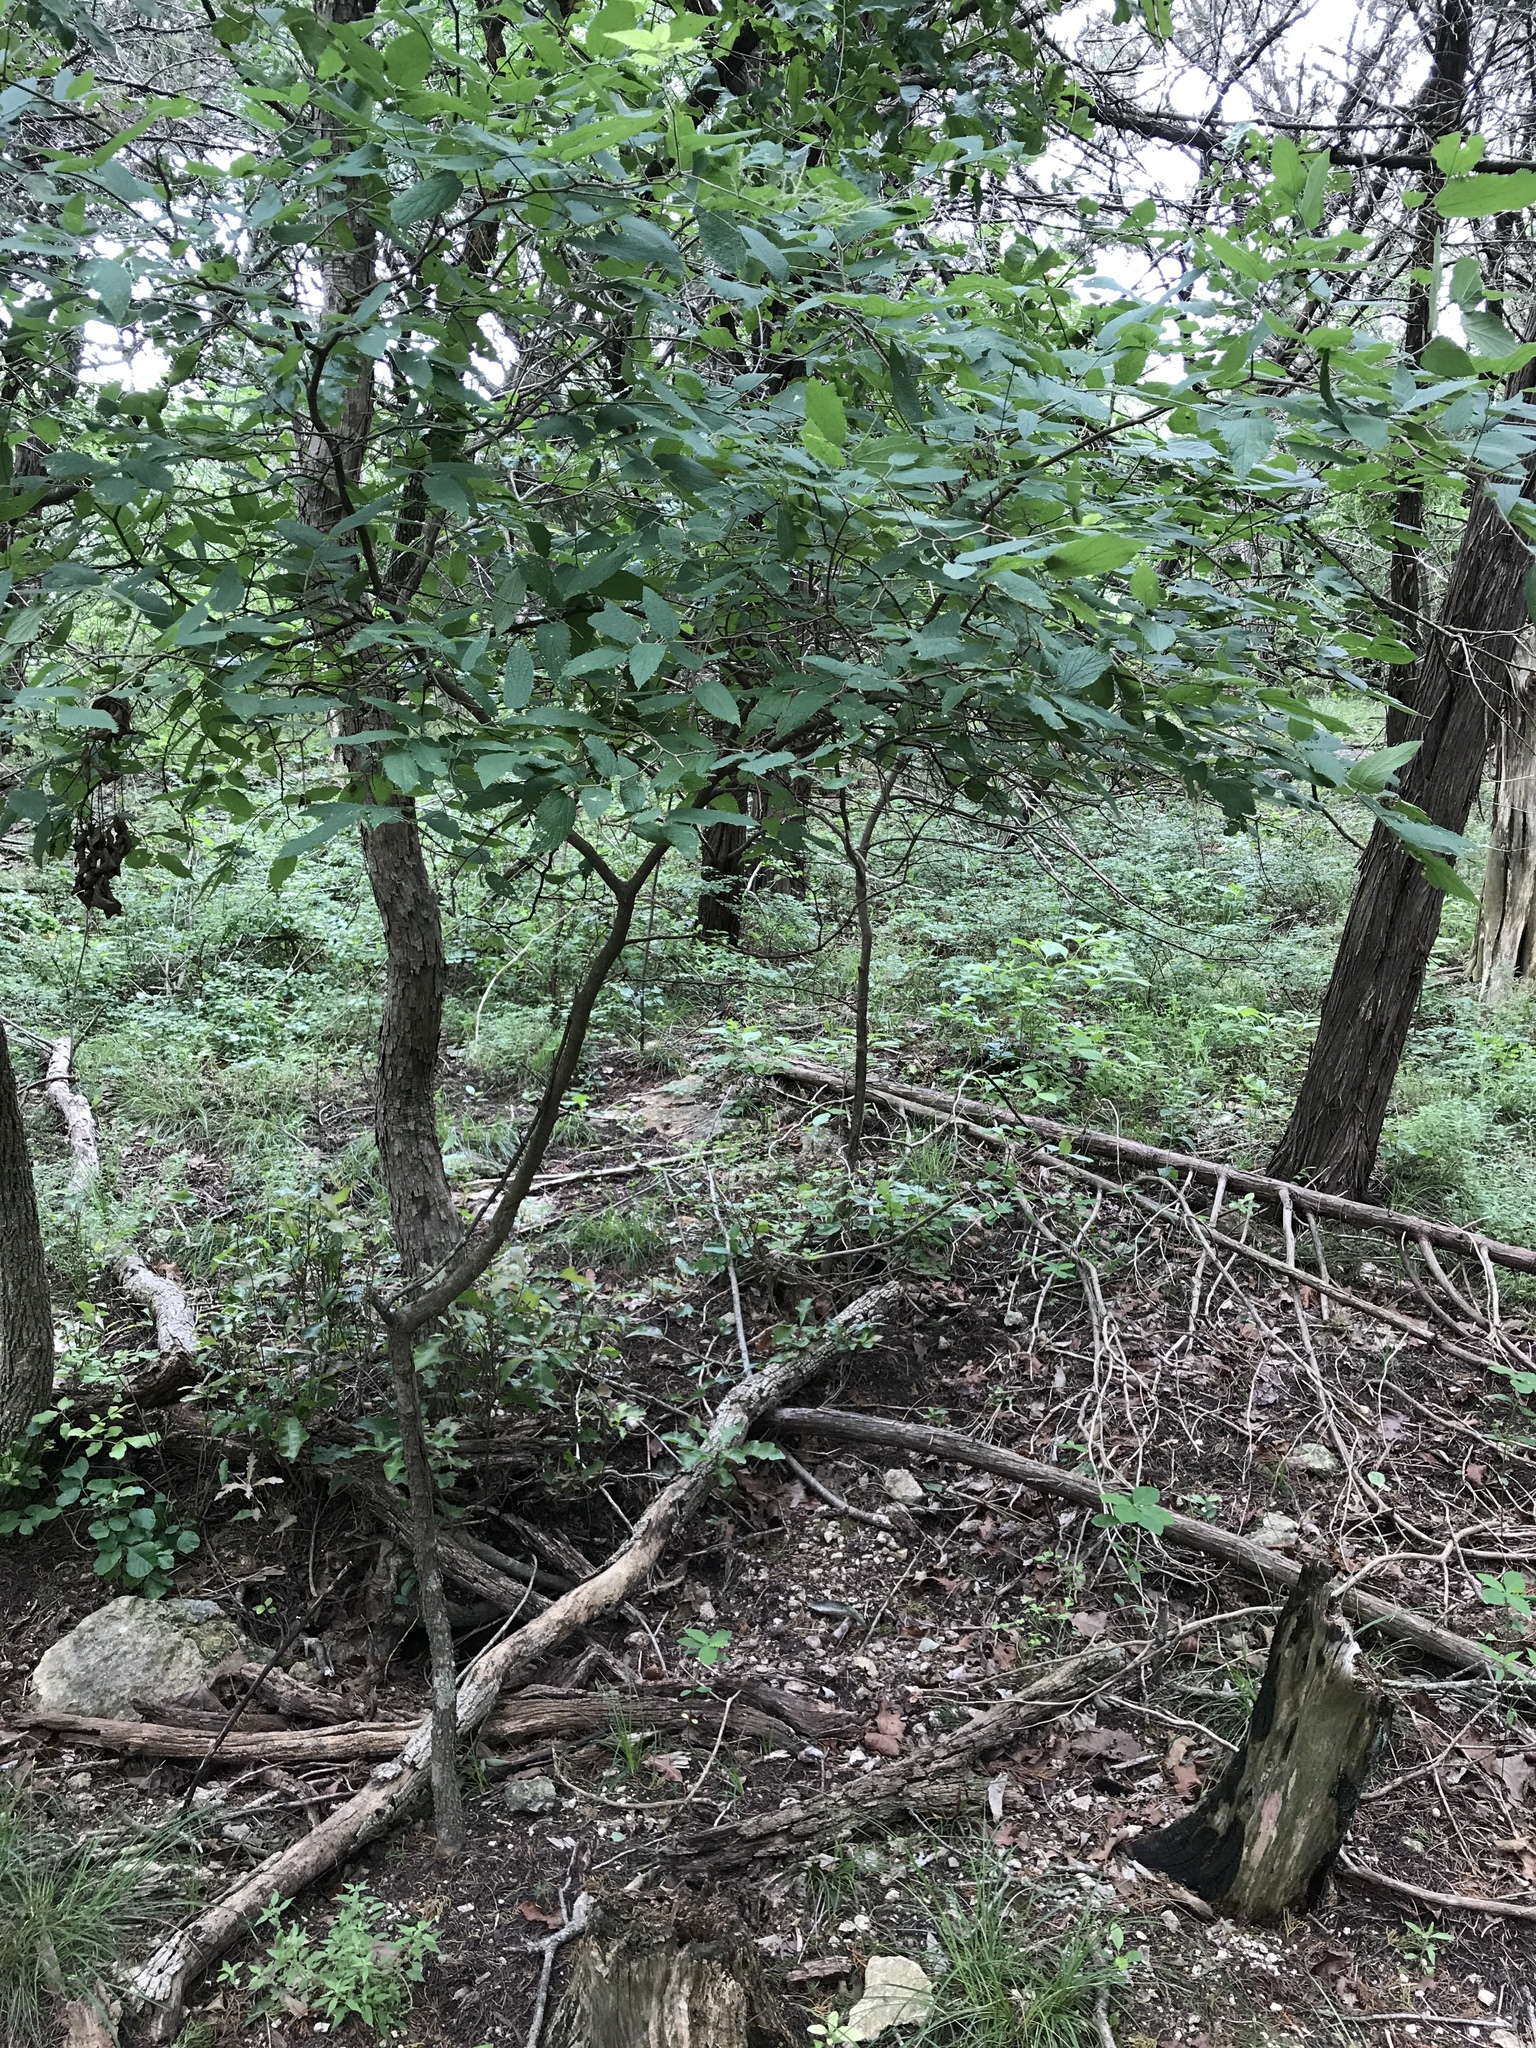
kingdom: Plantae
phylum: Tracheophyta
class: Magnoliopsida
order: Rosales
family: Cannabaceae
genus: Celtis
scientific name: Celtis reticulata
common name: Netleaf hackberry
